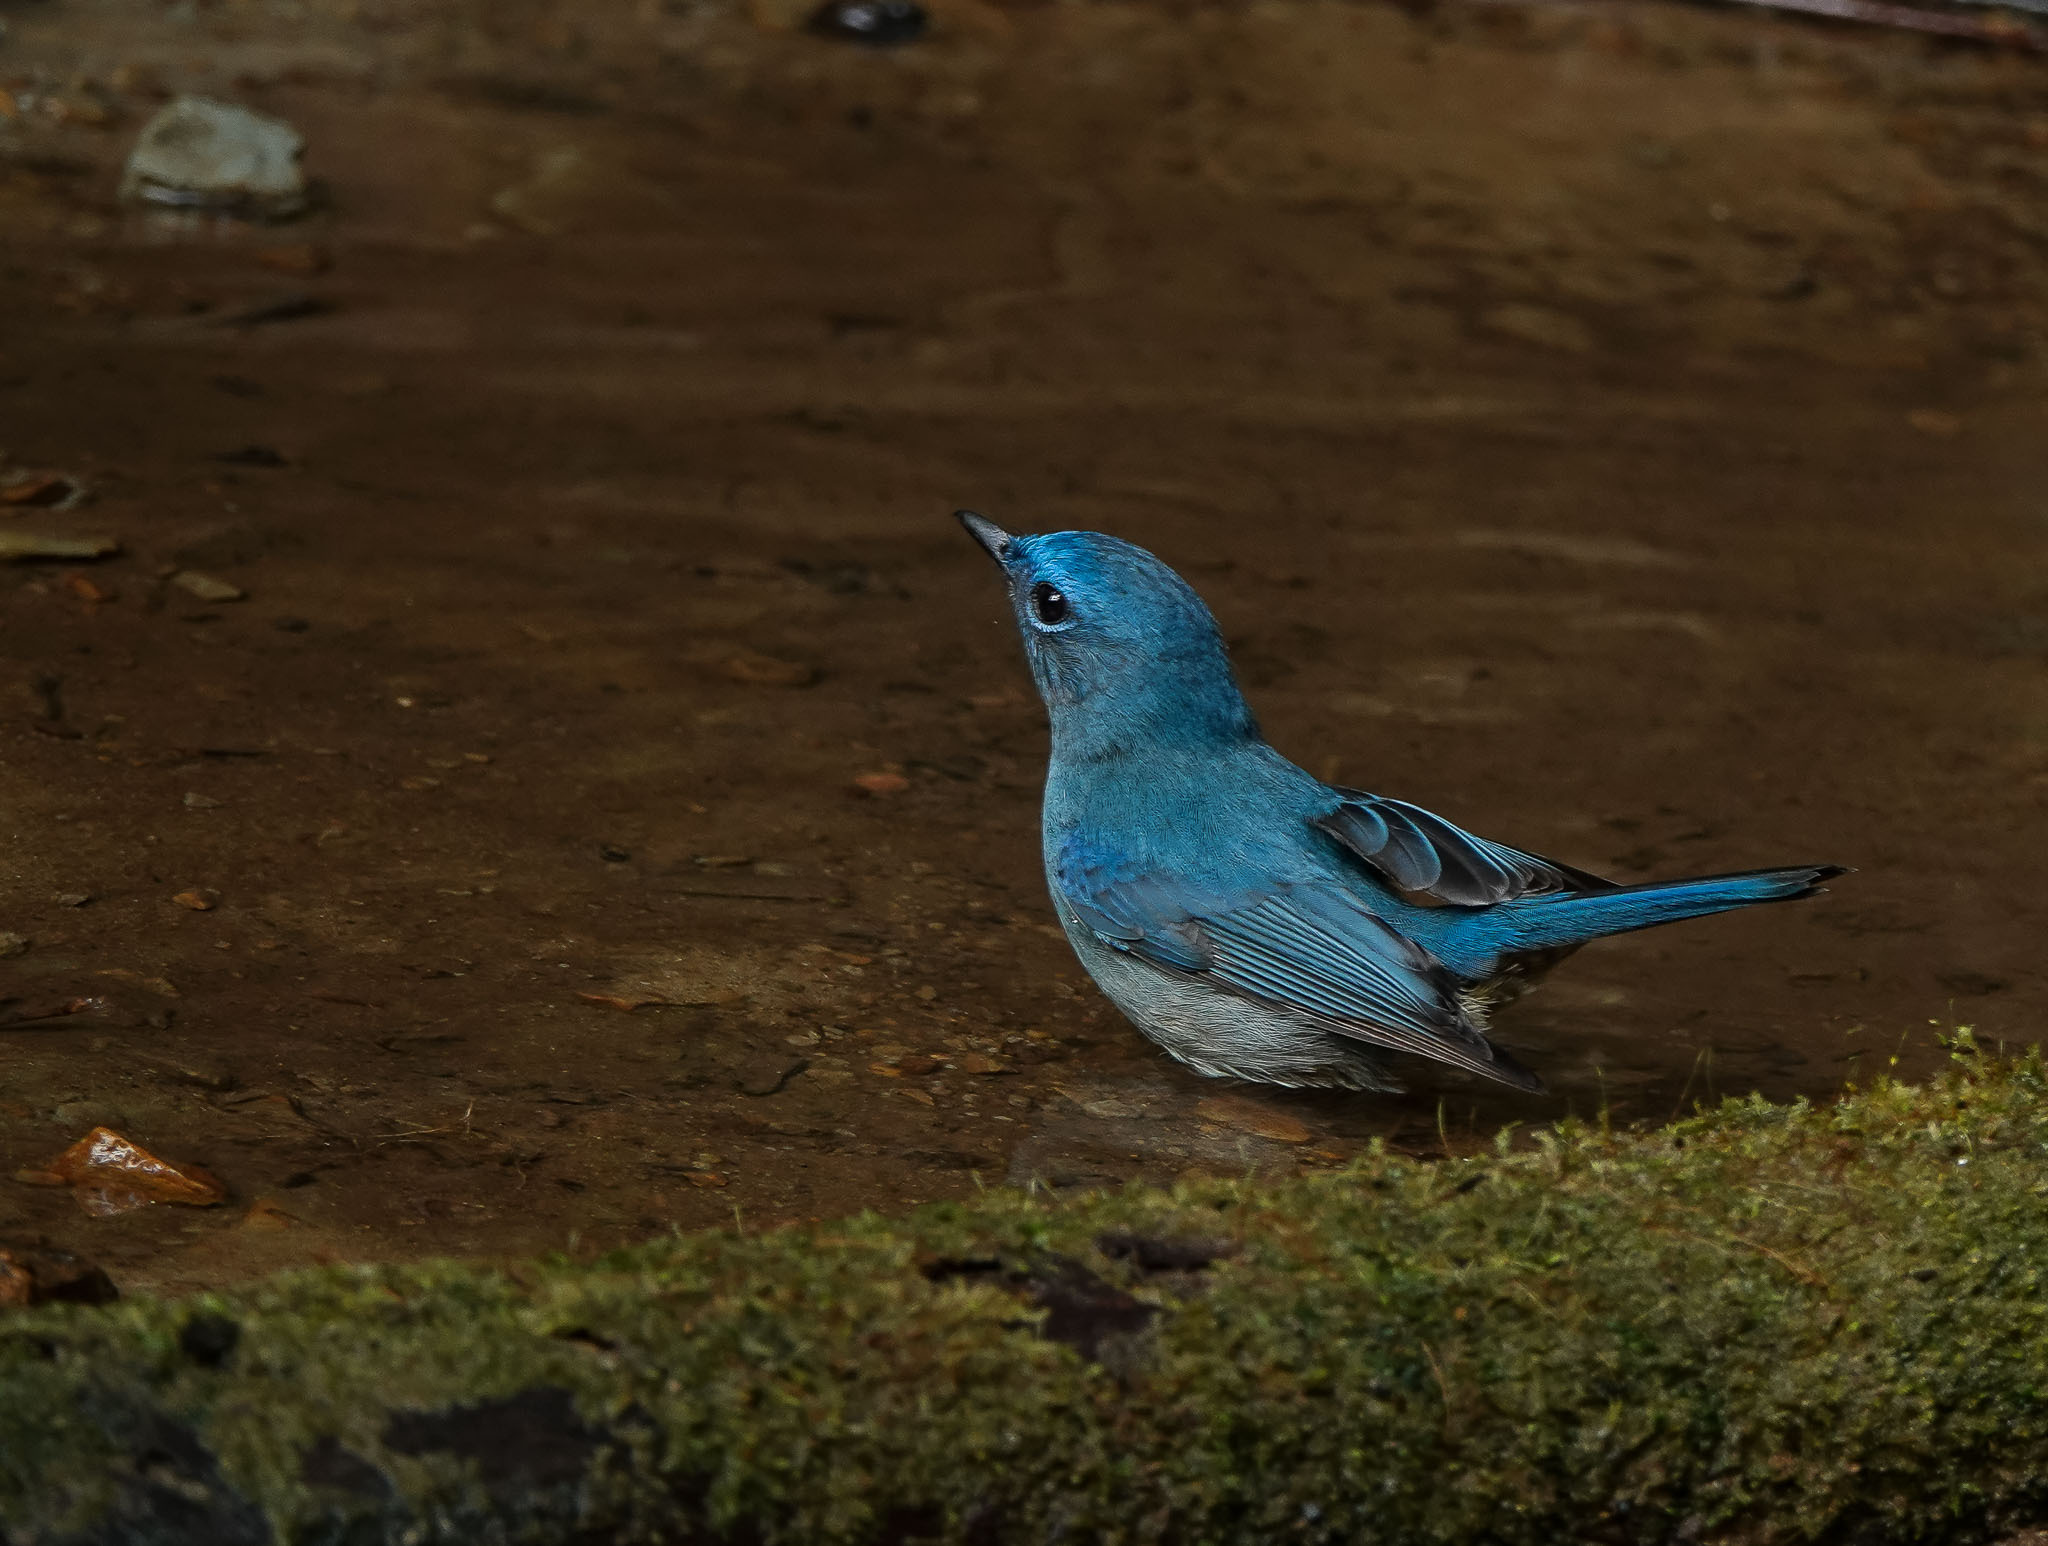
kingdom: Animalia
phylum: Chordata
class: Aves
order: Passeriformes
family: Muscicapidae
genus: Cyornis
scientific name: Cyornis unicolor
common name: Pale blue flycatcher
